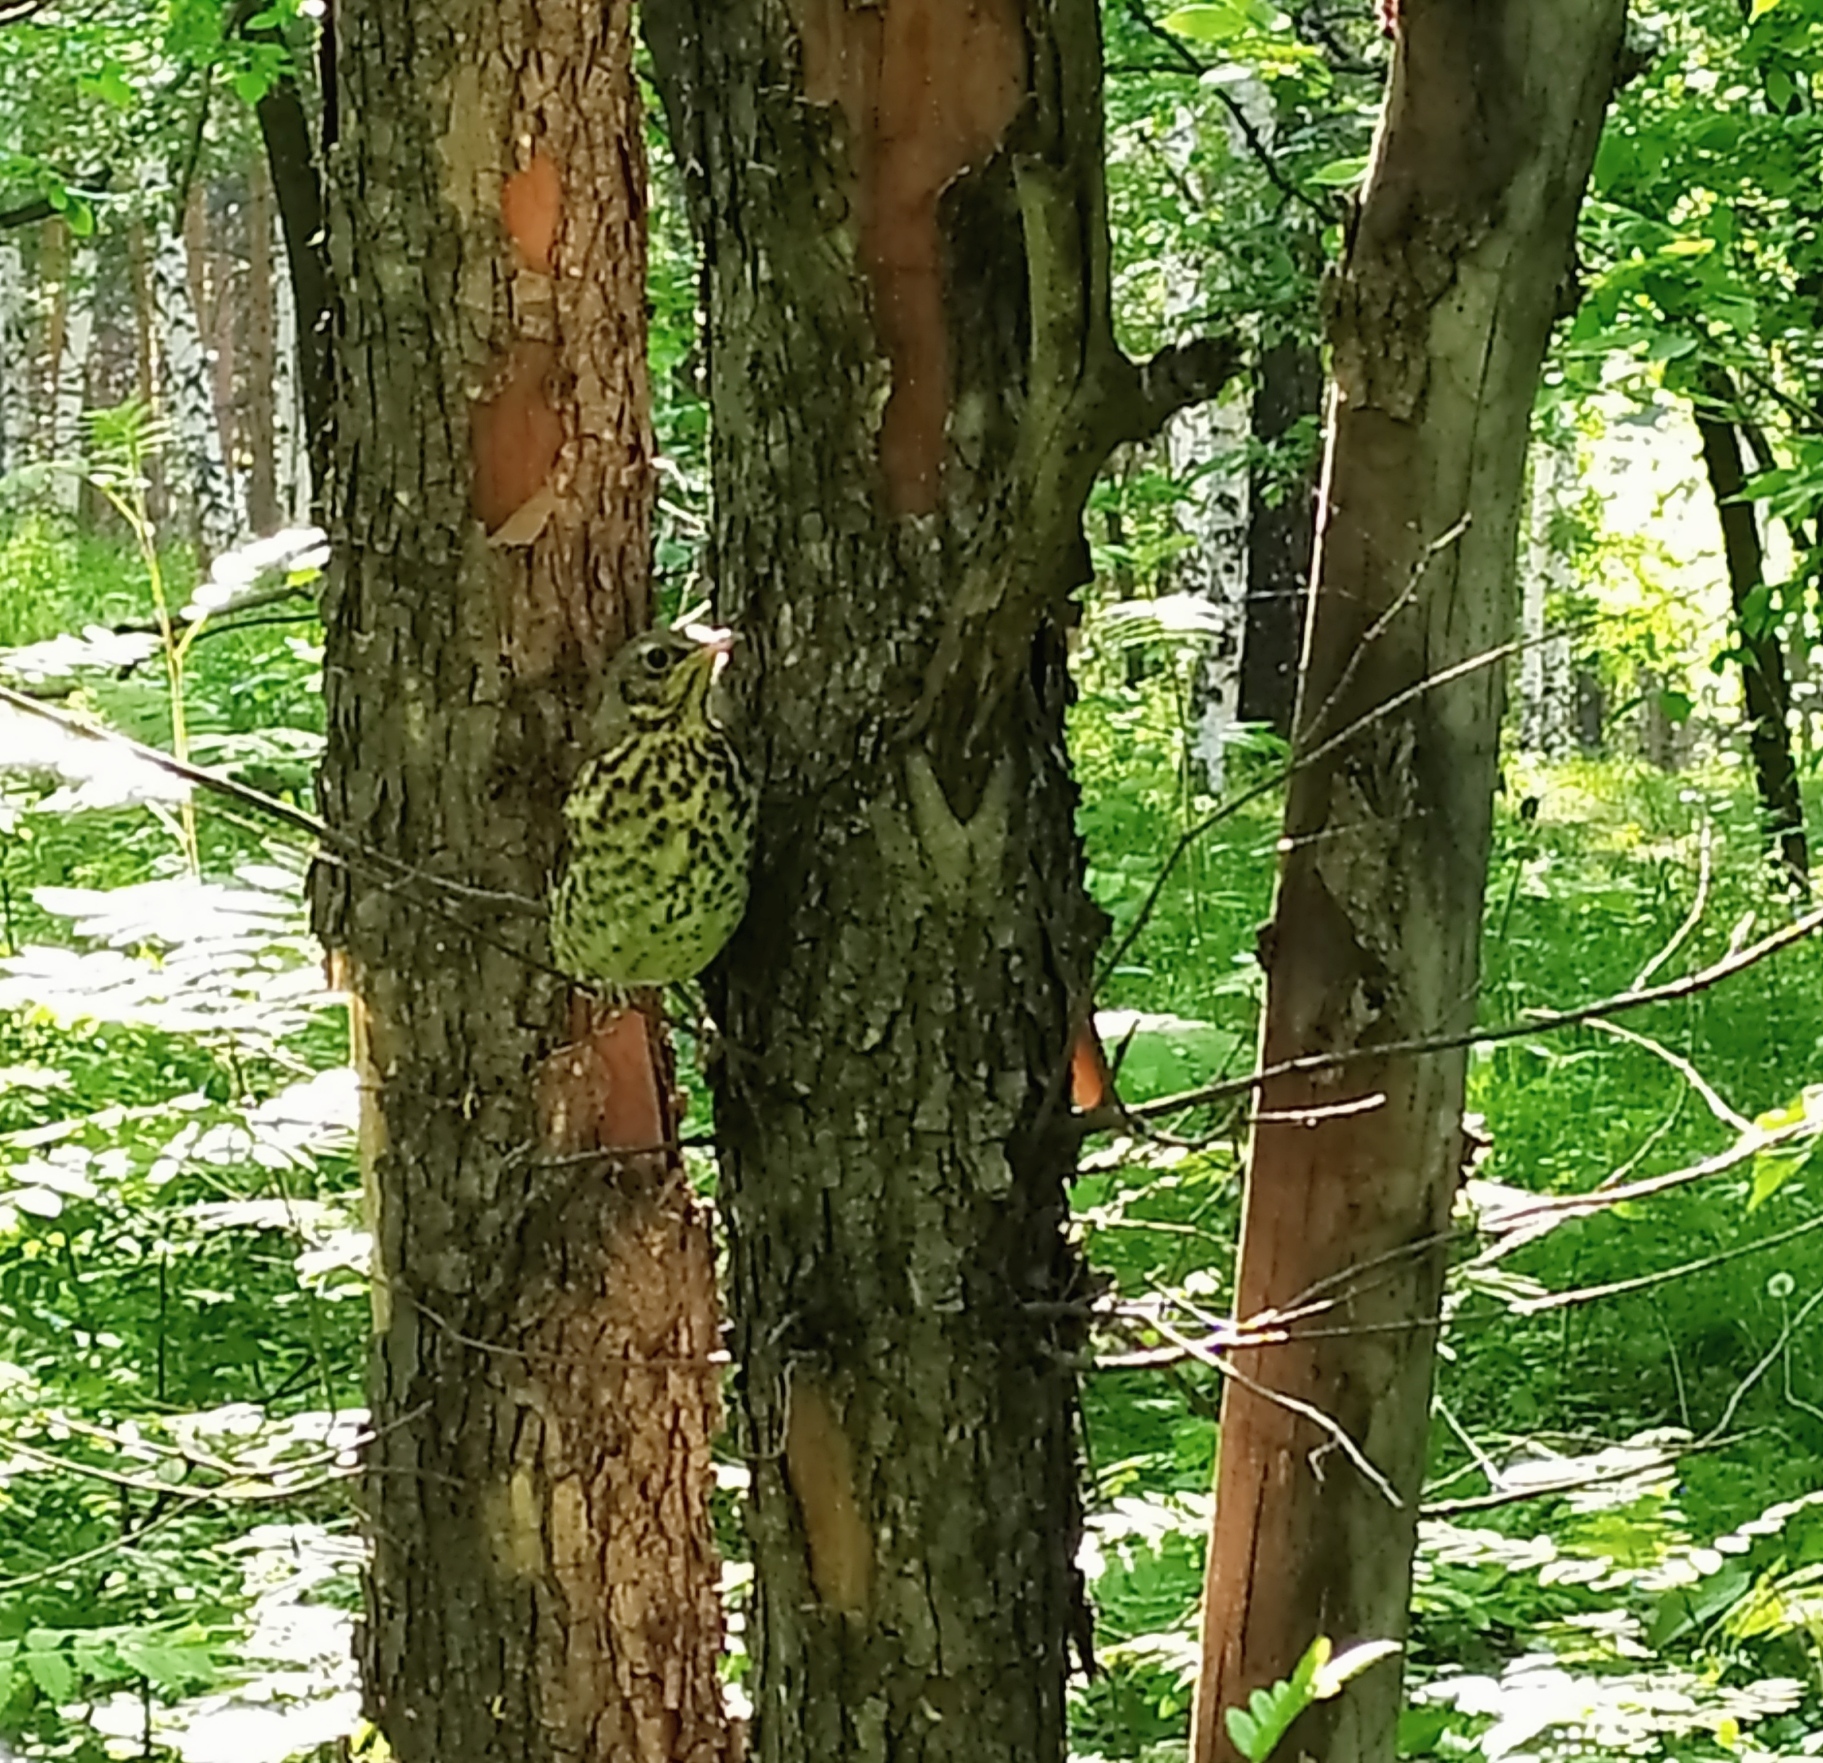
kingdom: Animalia
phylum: Chordata
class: Aves
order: Passeriformes
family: Turdidae
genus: Turdus
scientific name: Turdus pilaris
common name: Fieldfare
